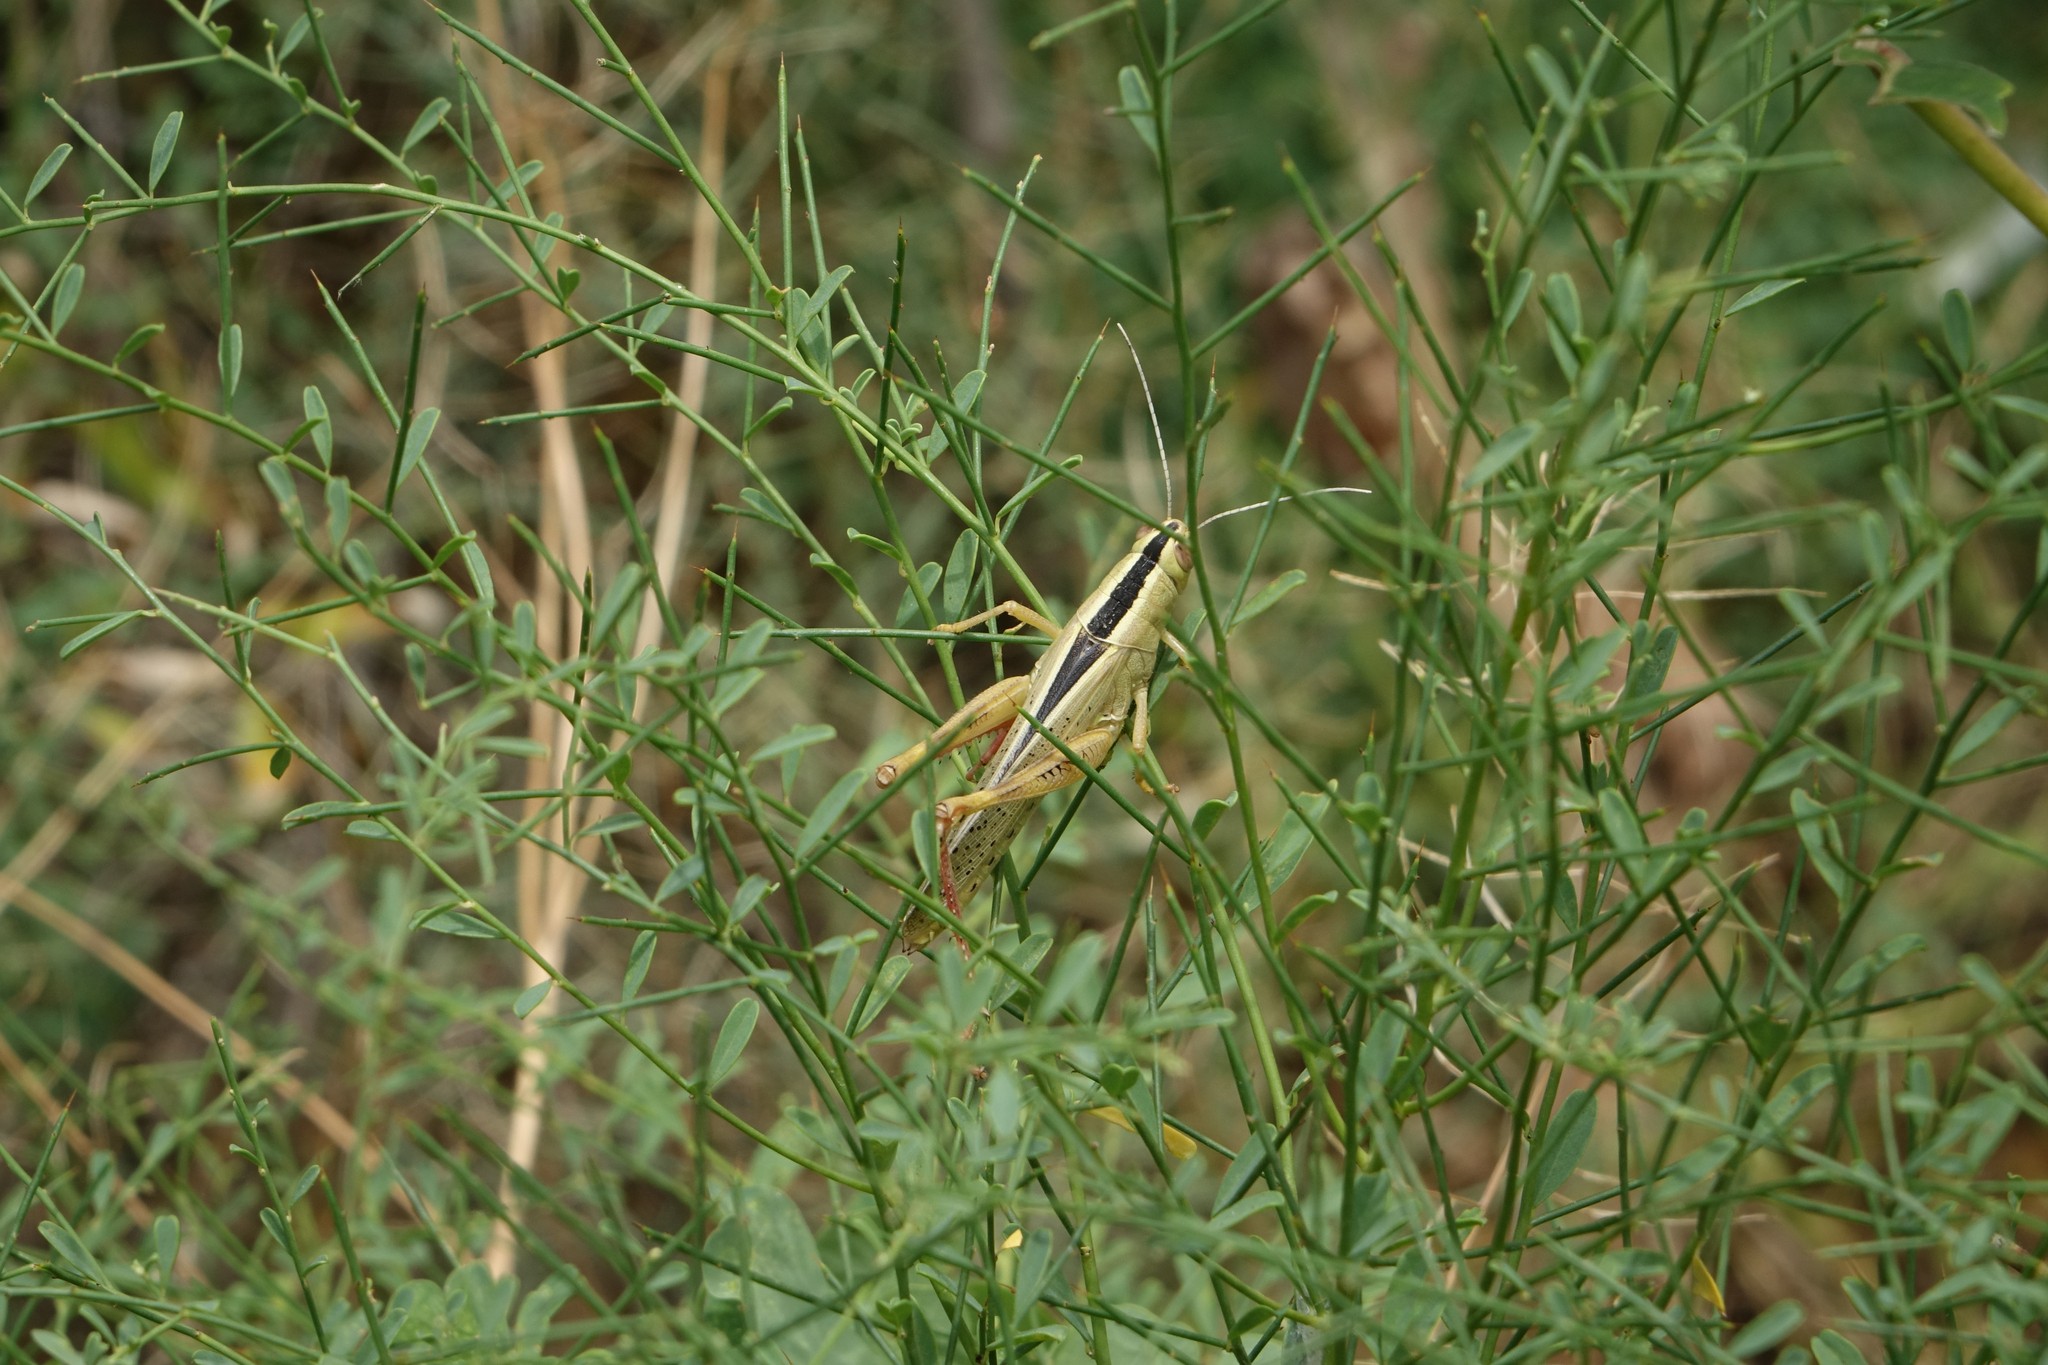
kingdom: Plantae
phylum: Tracheophyta
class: Magnoliopsida
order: Fabales
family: Fabaceae
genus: Alhagi
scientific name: Alhagi pseudalhagi
